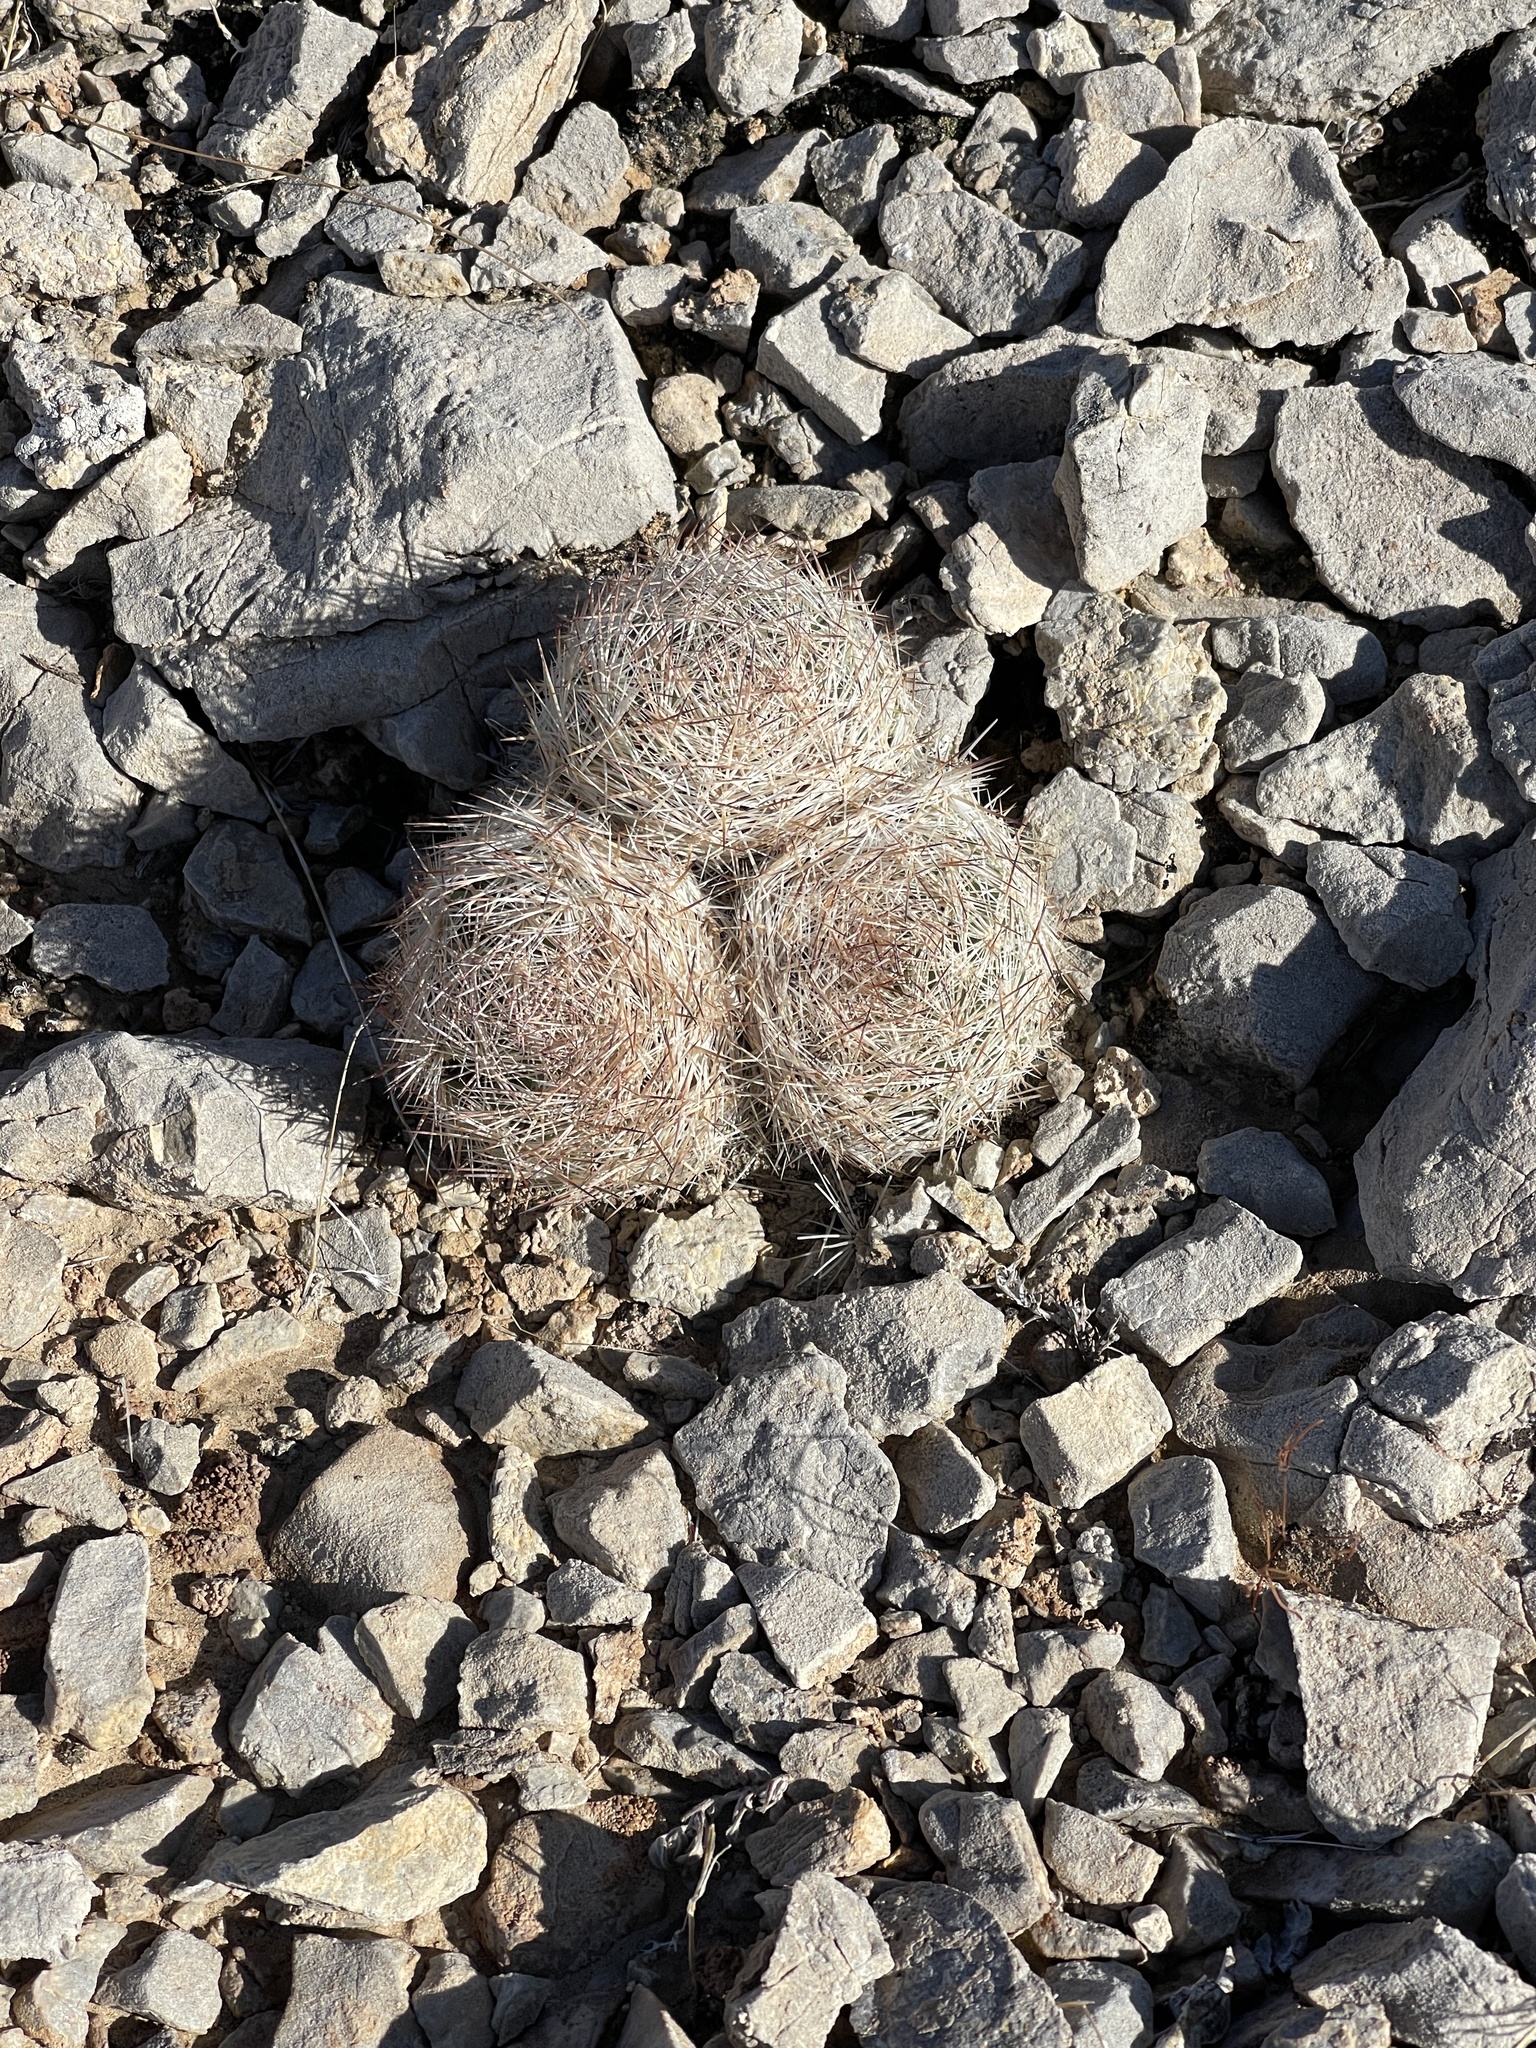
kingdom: Plantae
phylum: Tracheophyta
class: Magnoliopsida
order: Caryophyllales
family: Cactaceae
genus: Pelecyphora
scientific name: Pelecyphora dasyacantha
